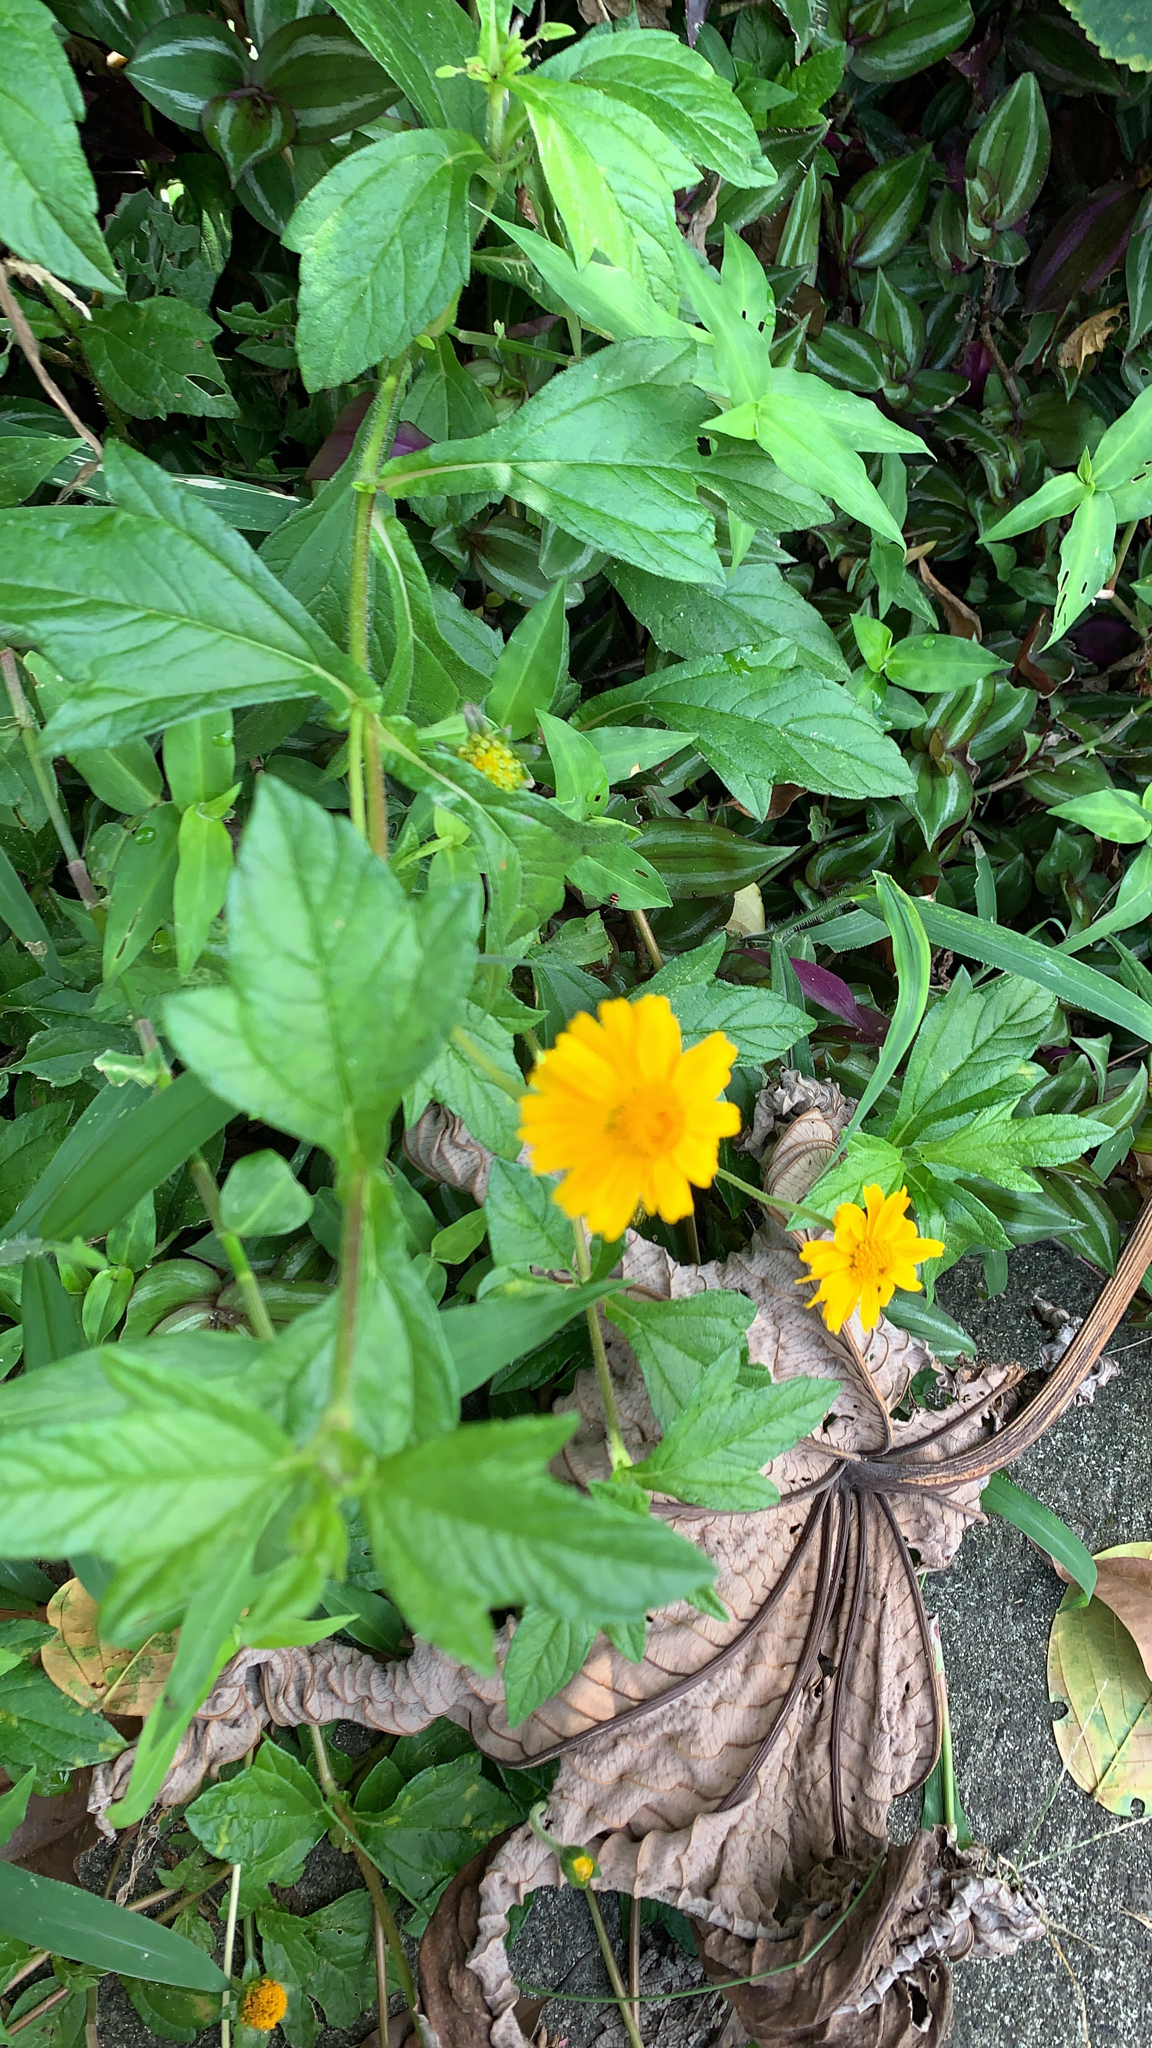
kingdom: Plantae
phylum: Tracheophyta
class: Magnoliopsida
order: Asterales
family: Asteraceae
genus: Sphagneticola
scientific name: Sphagneticola trilobata
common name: Bay biscayne creeping-oxeye
